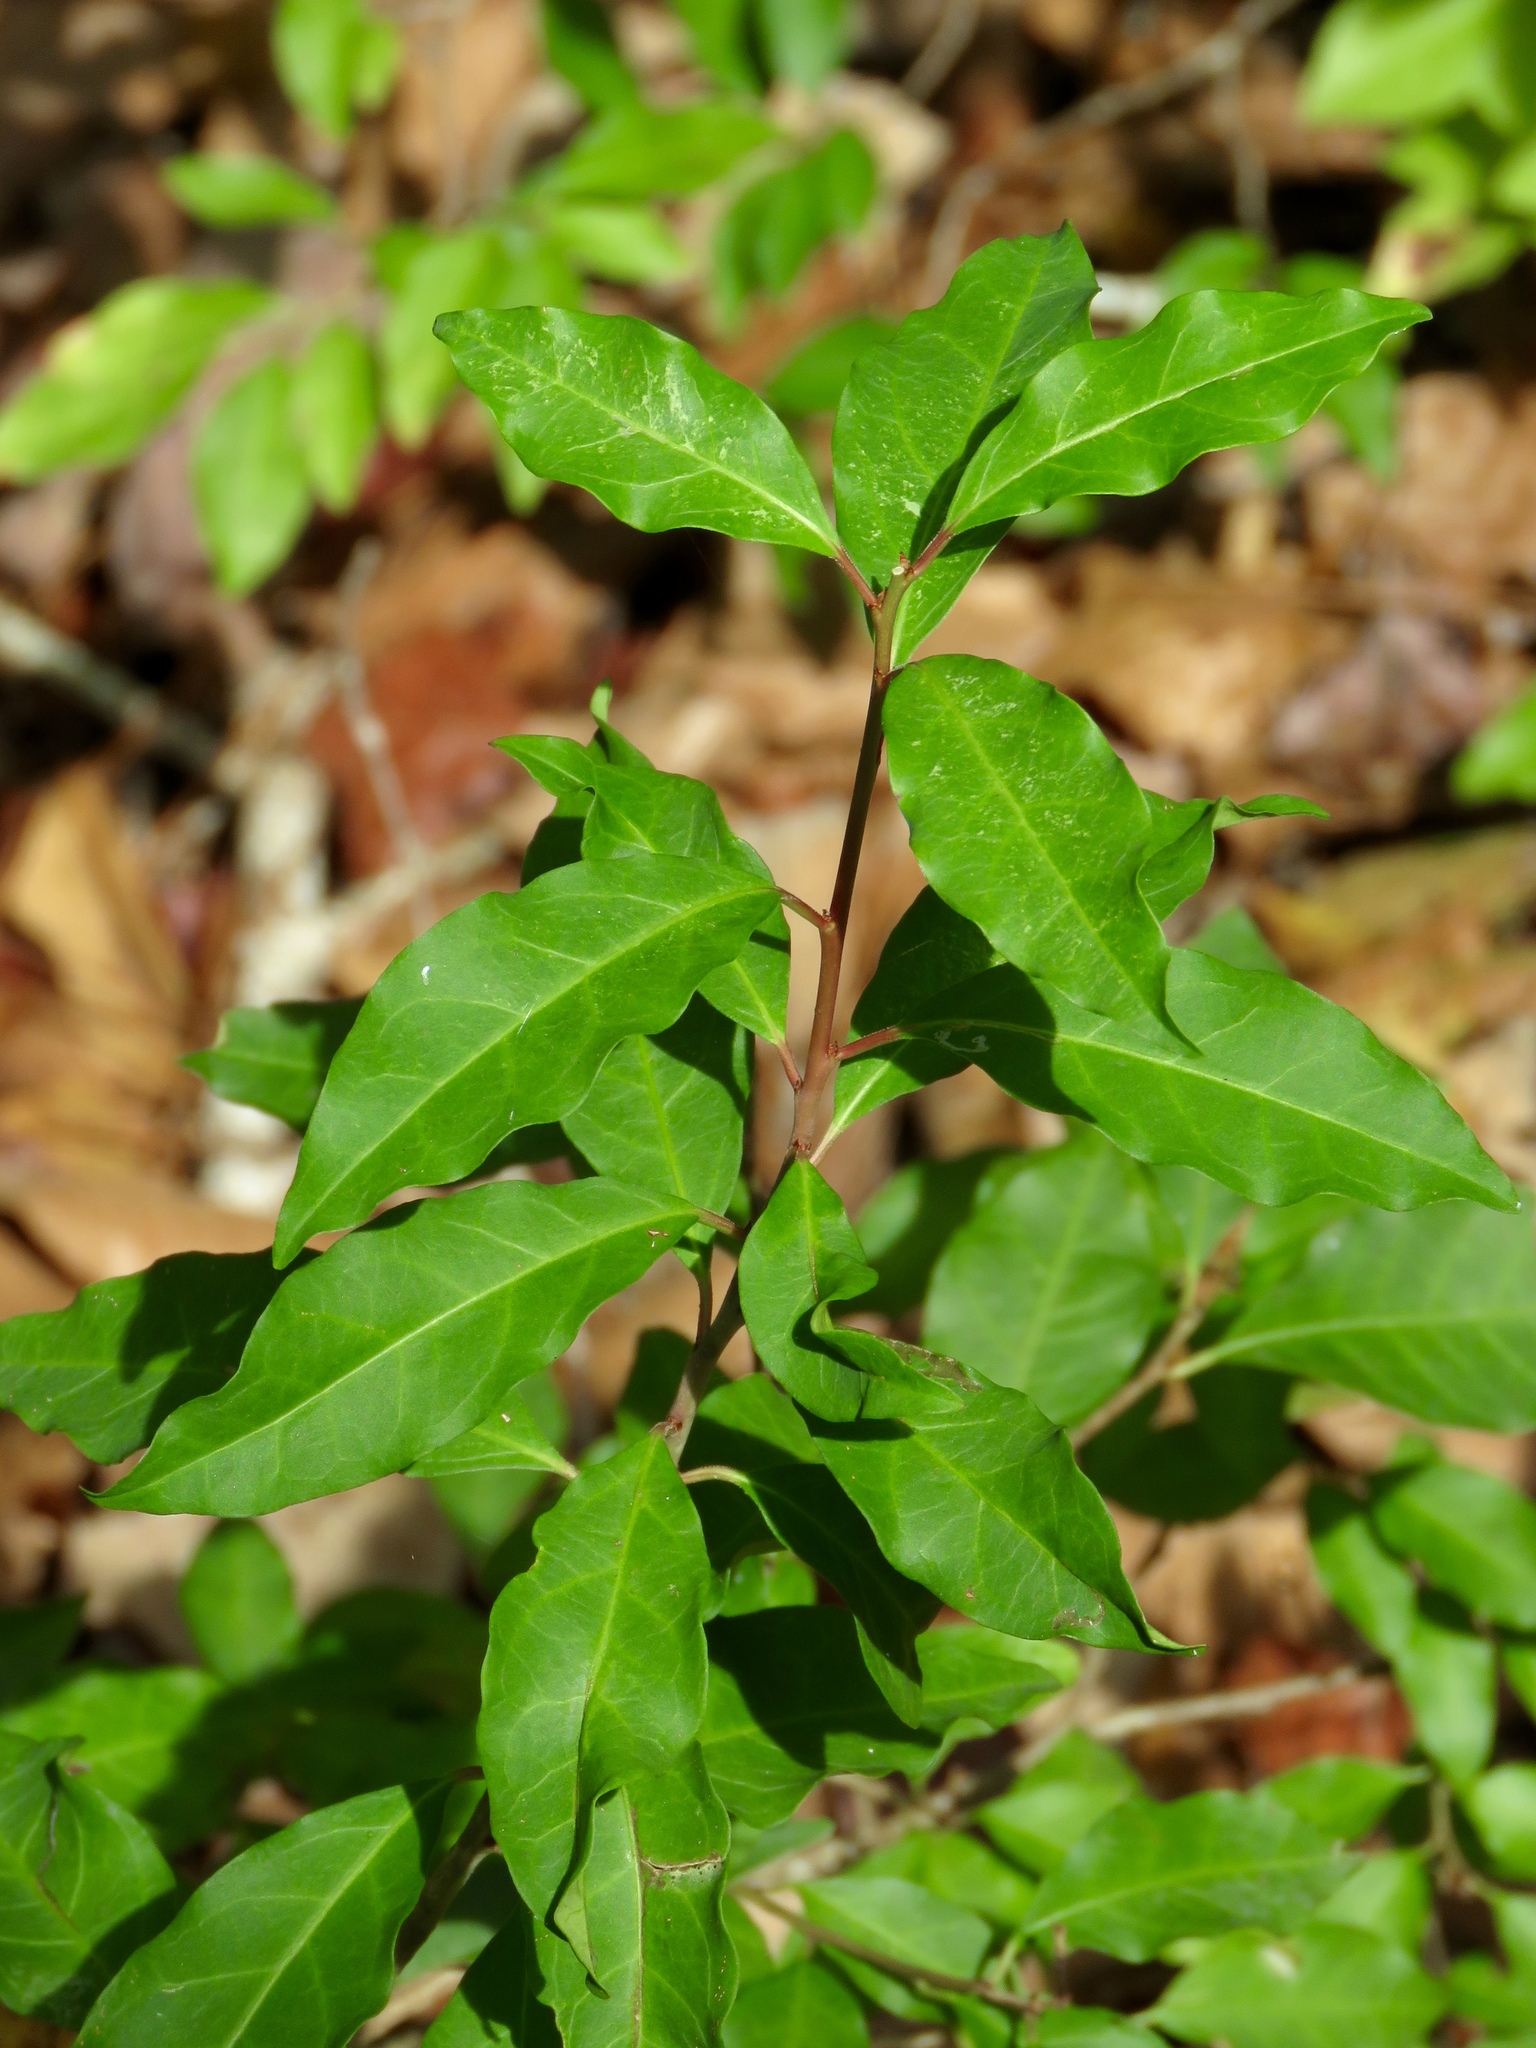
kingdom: Plantae
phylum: Tracheophyta
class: Magnoliopsida
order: Malpighiales
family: Euphorbiaceae
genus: Ditrysinia
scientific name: Ditrysinia fruticosa
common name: Gulf sebastian-bush
